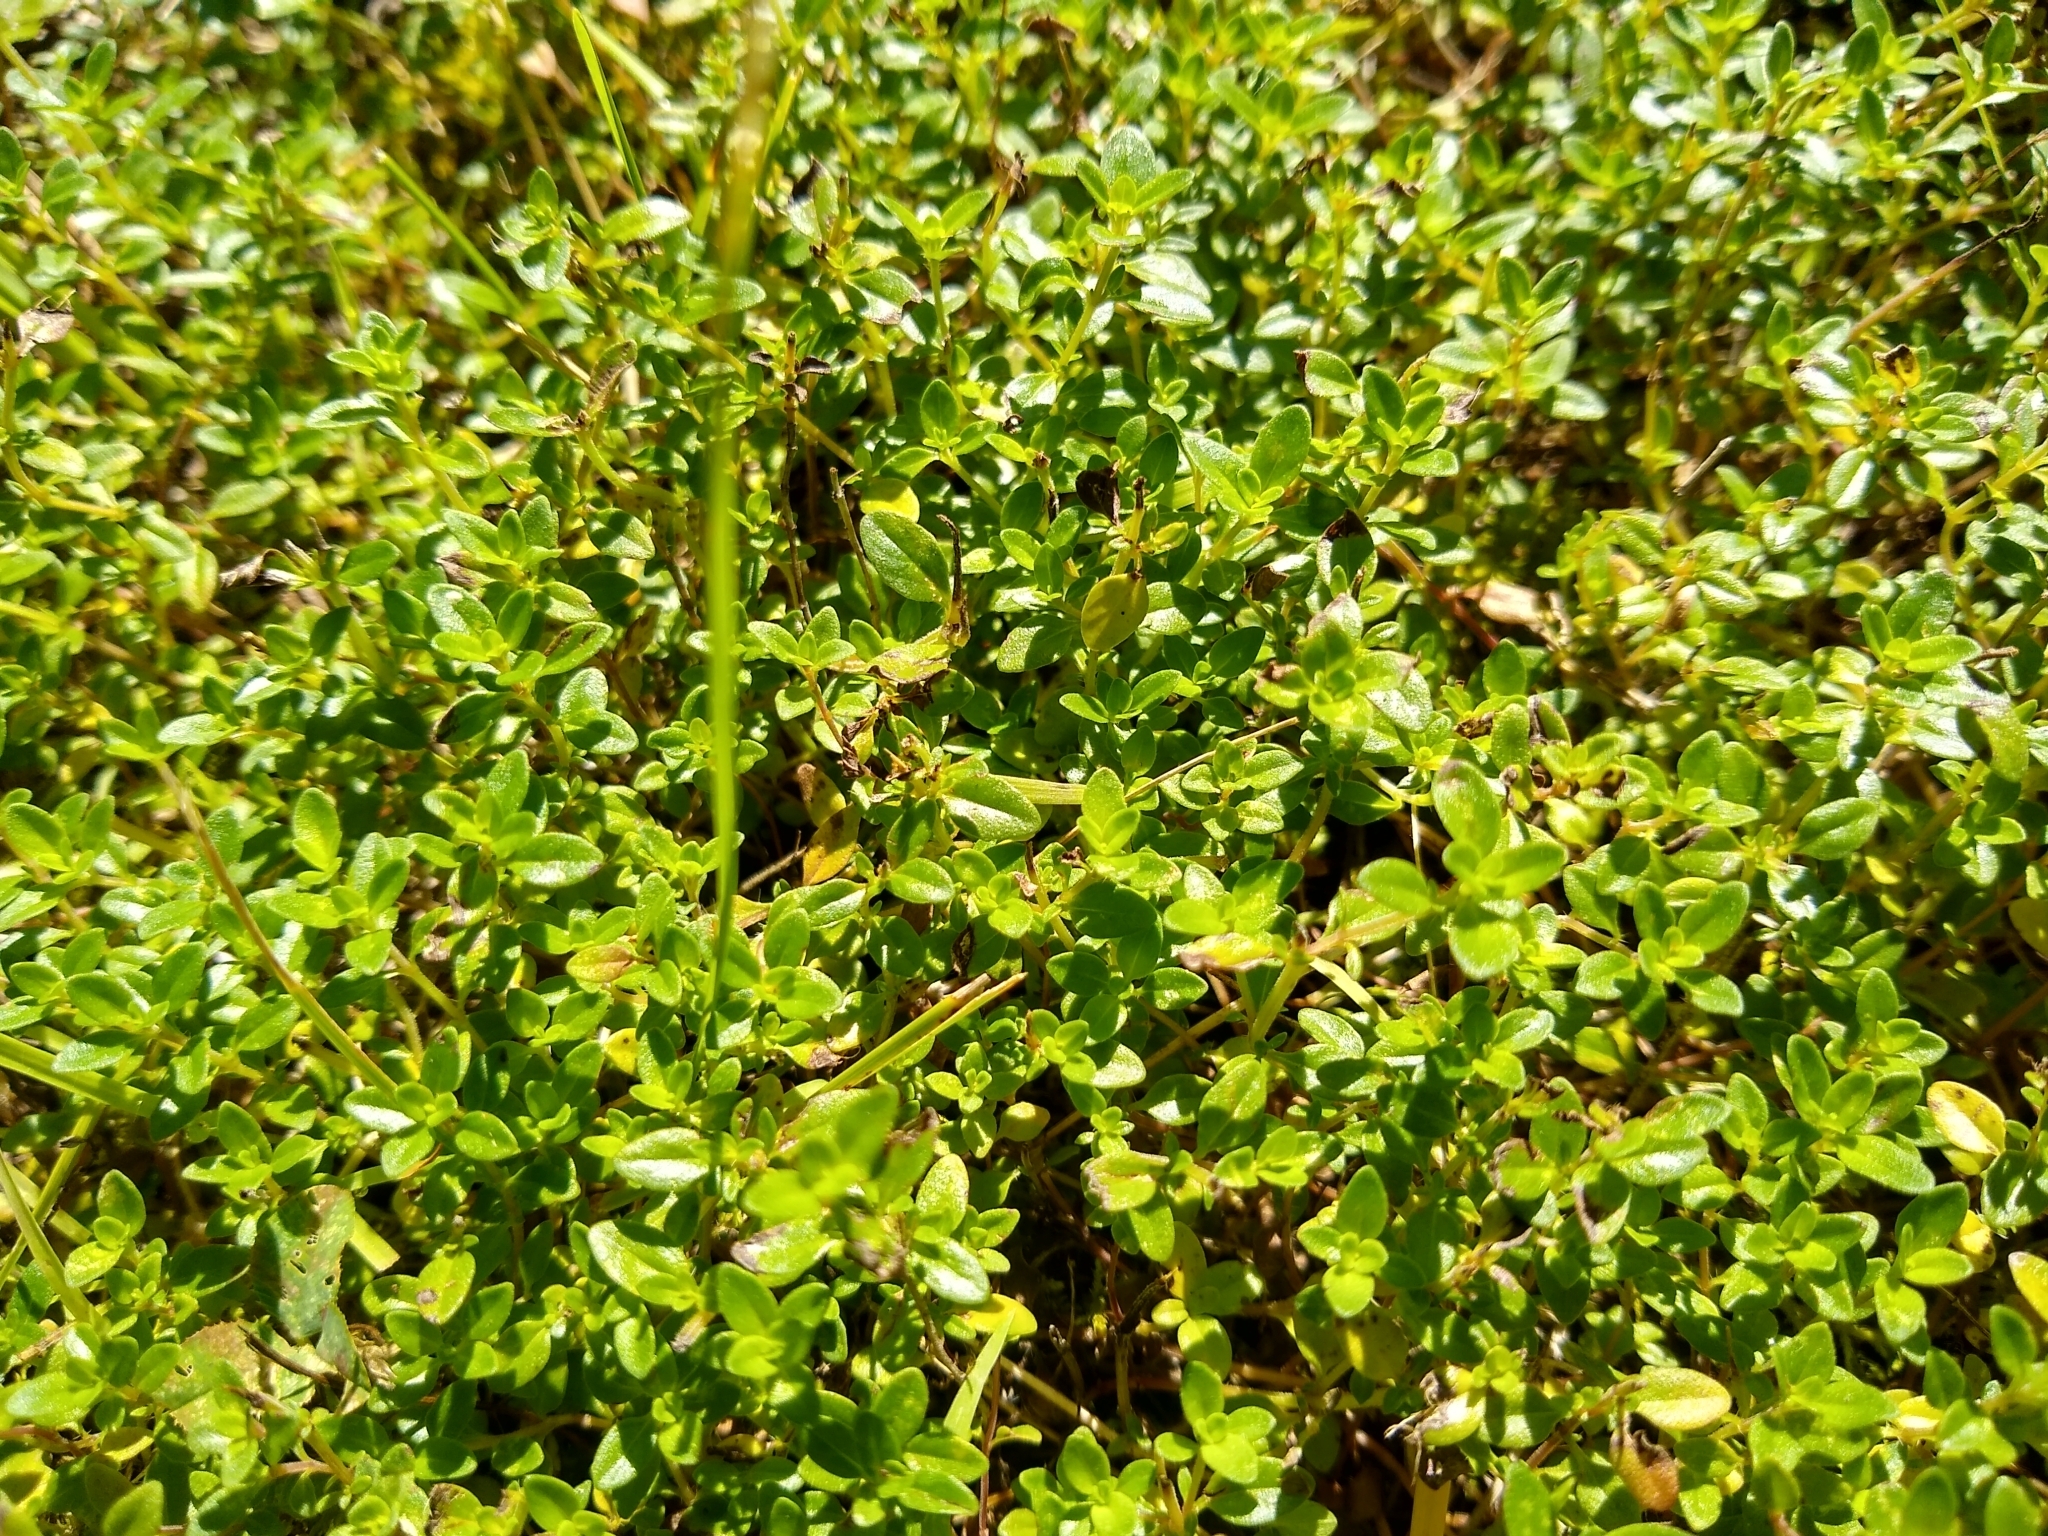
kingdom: Plantae
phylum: Tracheophyta
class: Magnoliopsida
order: Lamiales
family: Lamiaceae
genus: Thymus
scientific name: Thymus pulegioides
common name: Large thyme
